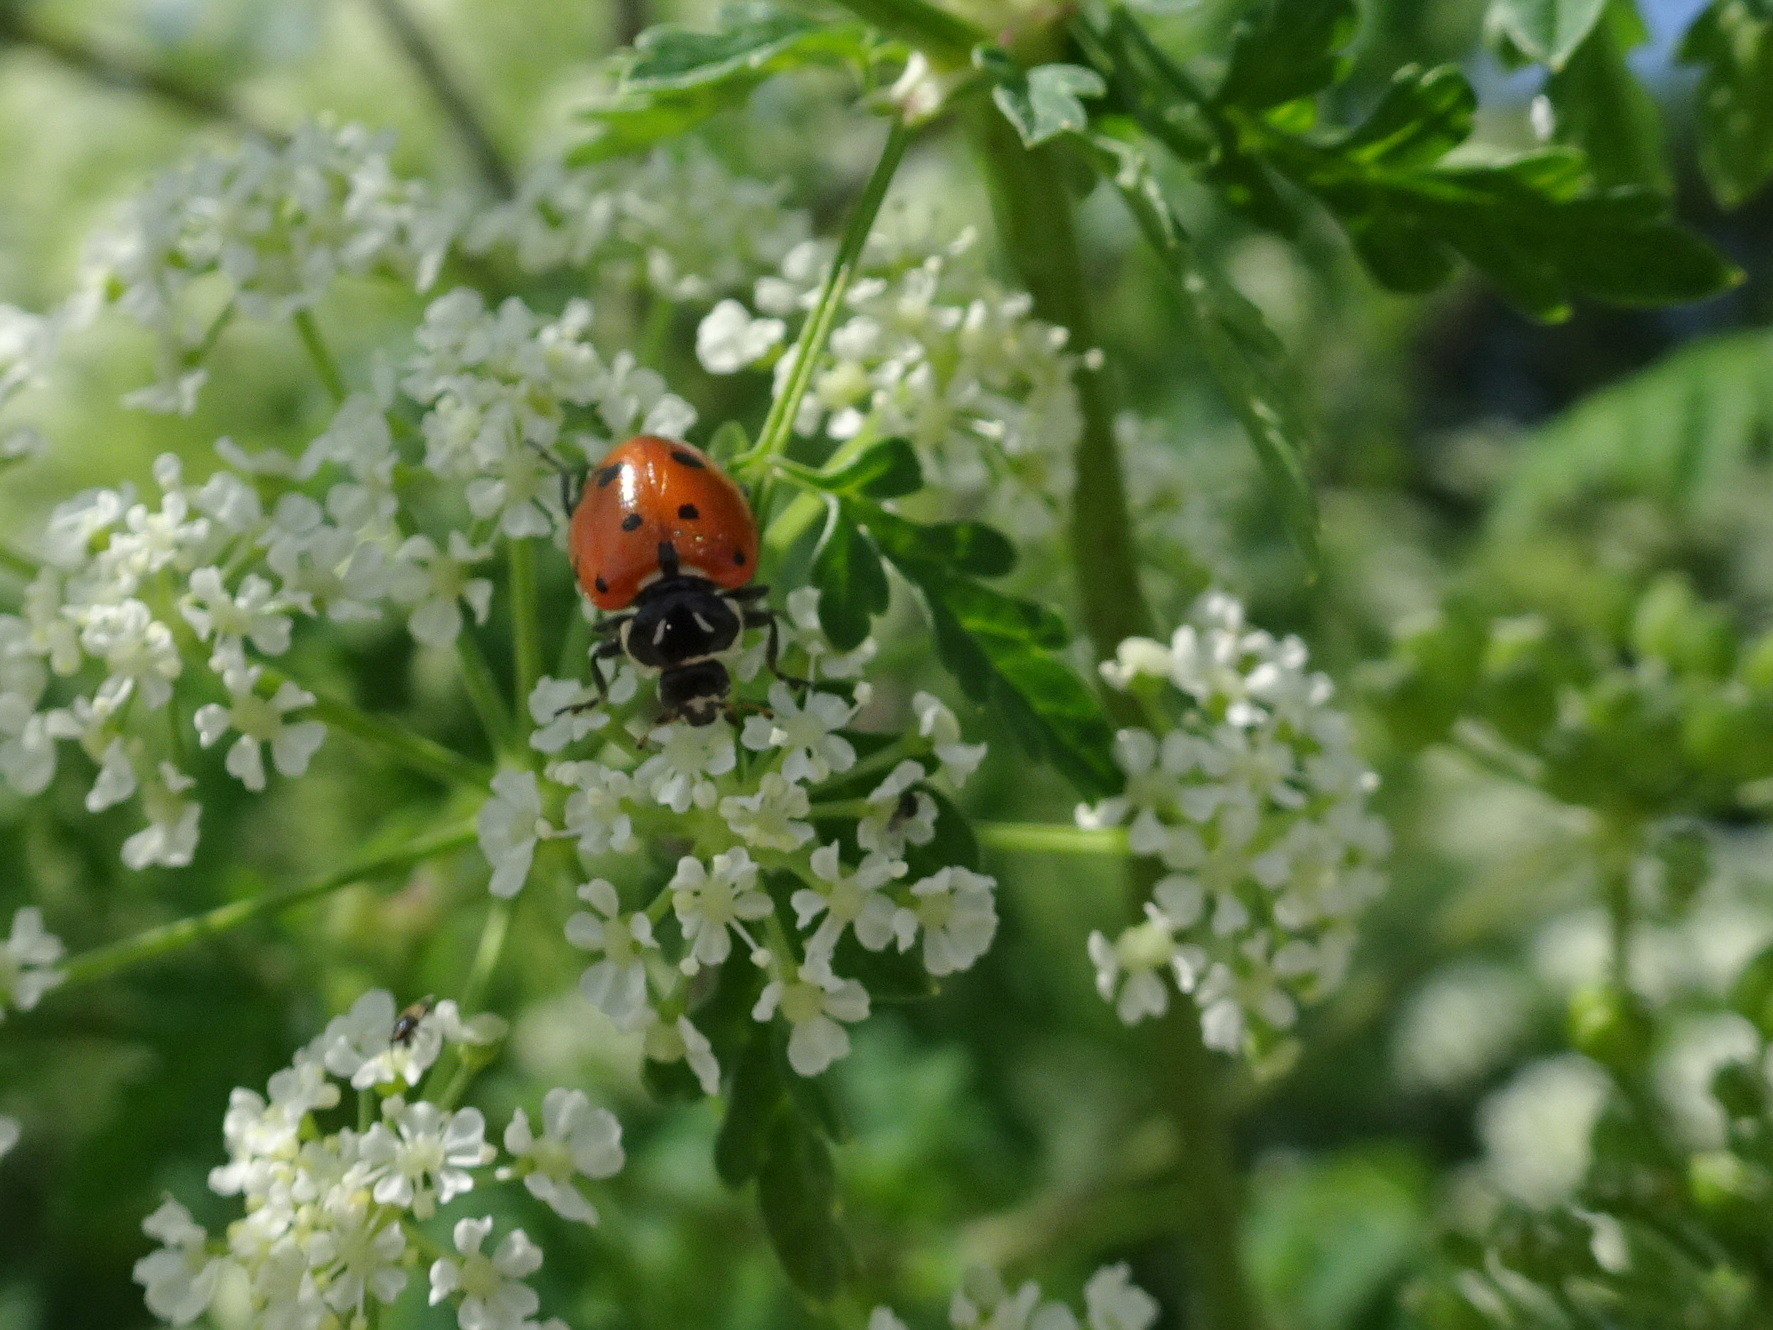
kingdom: Animalia
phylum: Arthropoda
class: Insecta
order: Coleoptera
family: Coccinellidae
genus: Hippodamia
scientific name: Hippodamia convergens
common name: Convergent lady beetle
